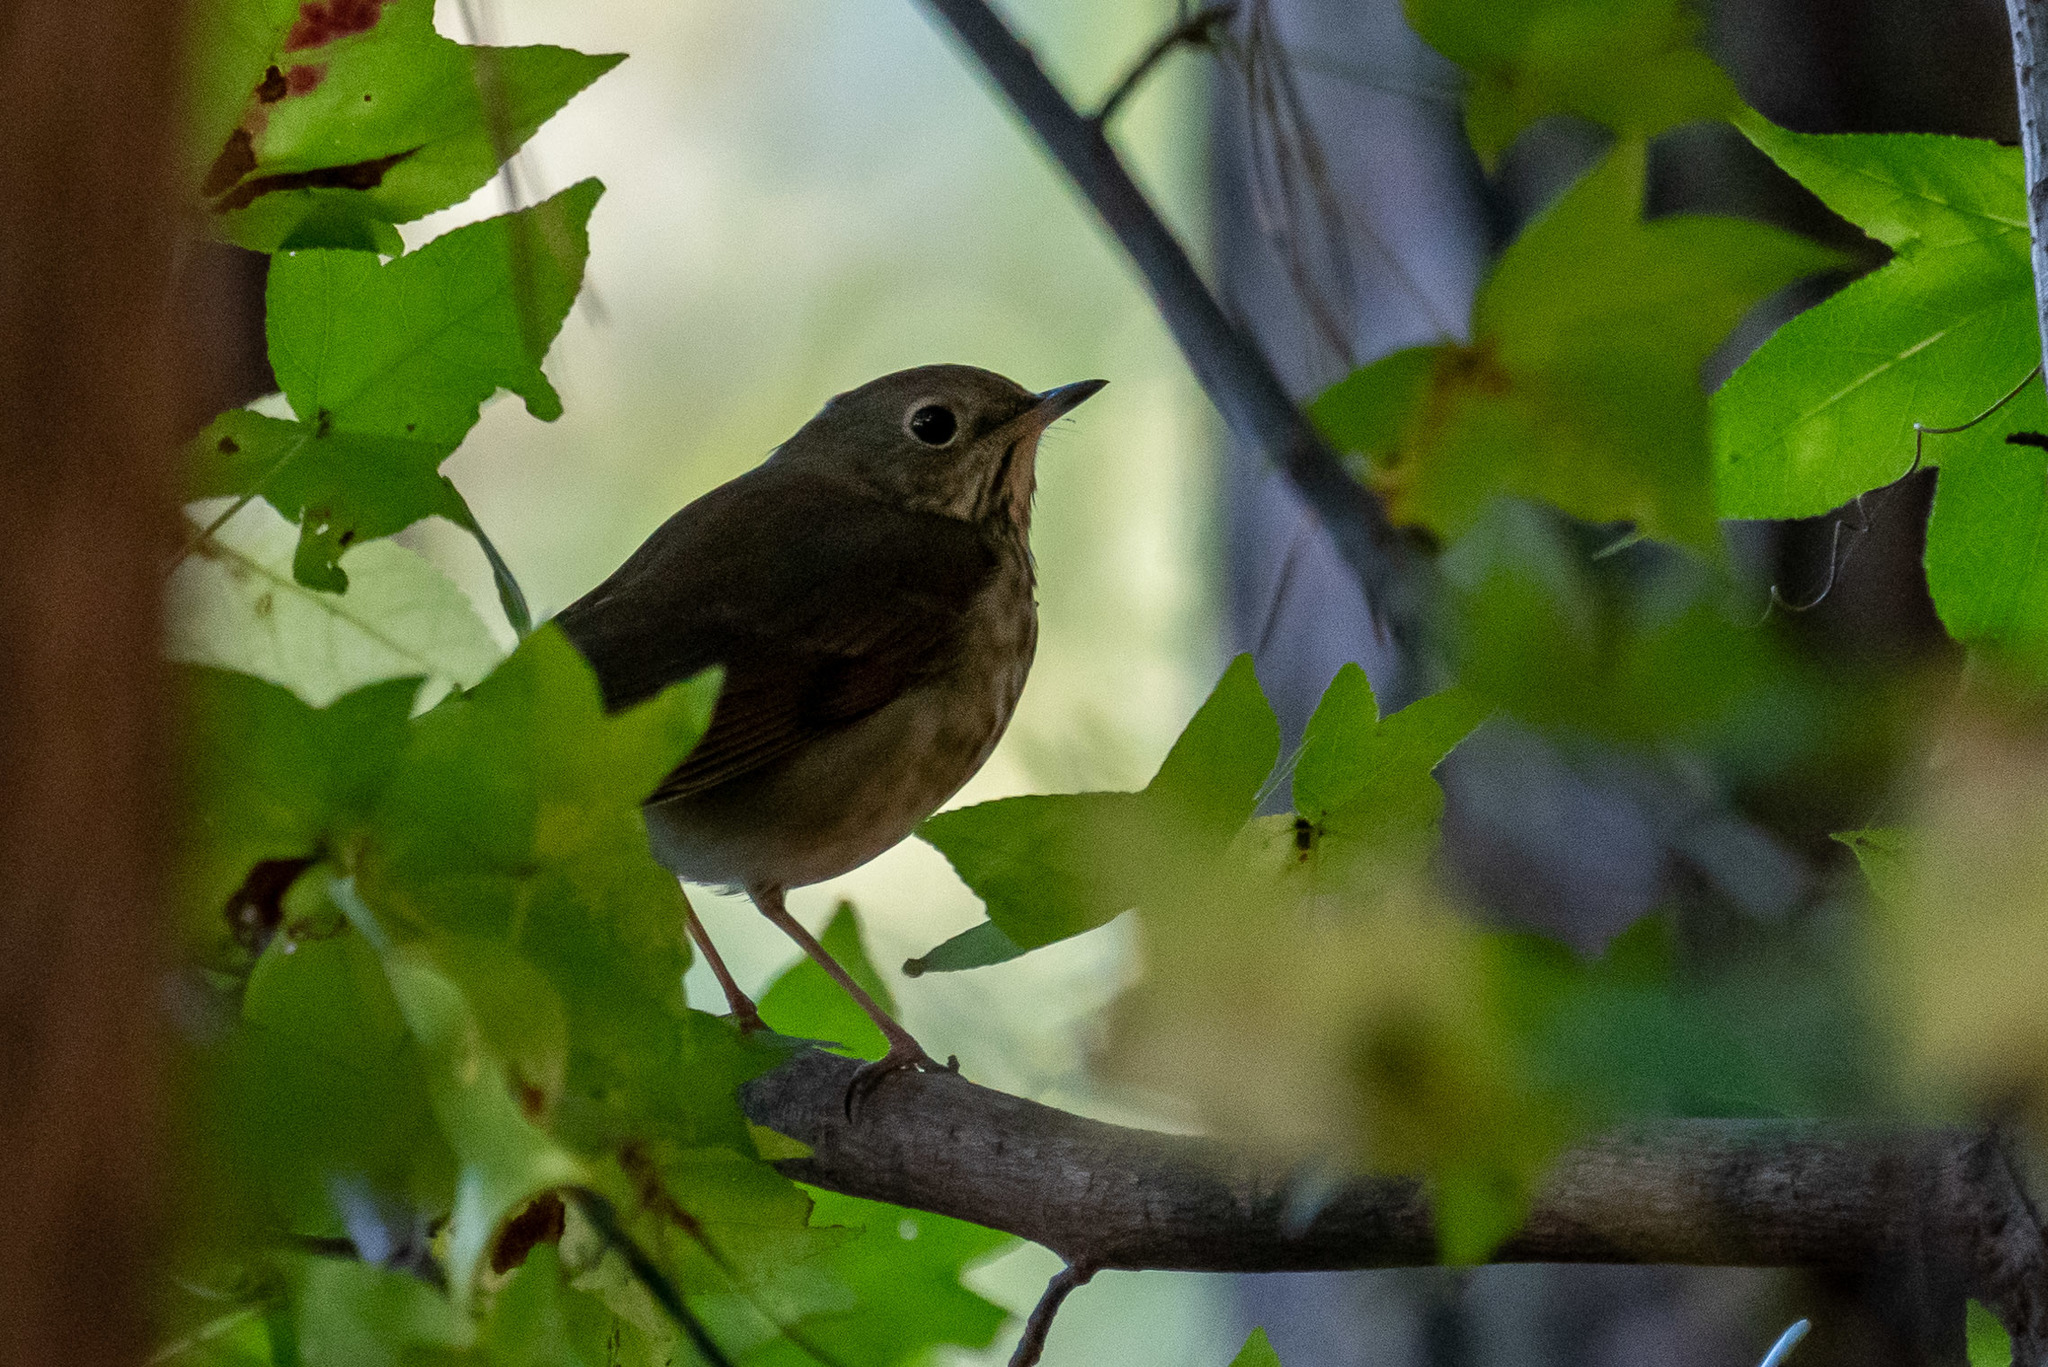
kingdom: Animalia
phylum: Chordata
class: Aves
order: Passeriformes
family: Turdidae
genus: Catharus
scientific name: Catharus guttatus
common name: Hermit thrush
